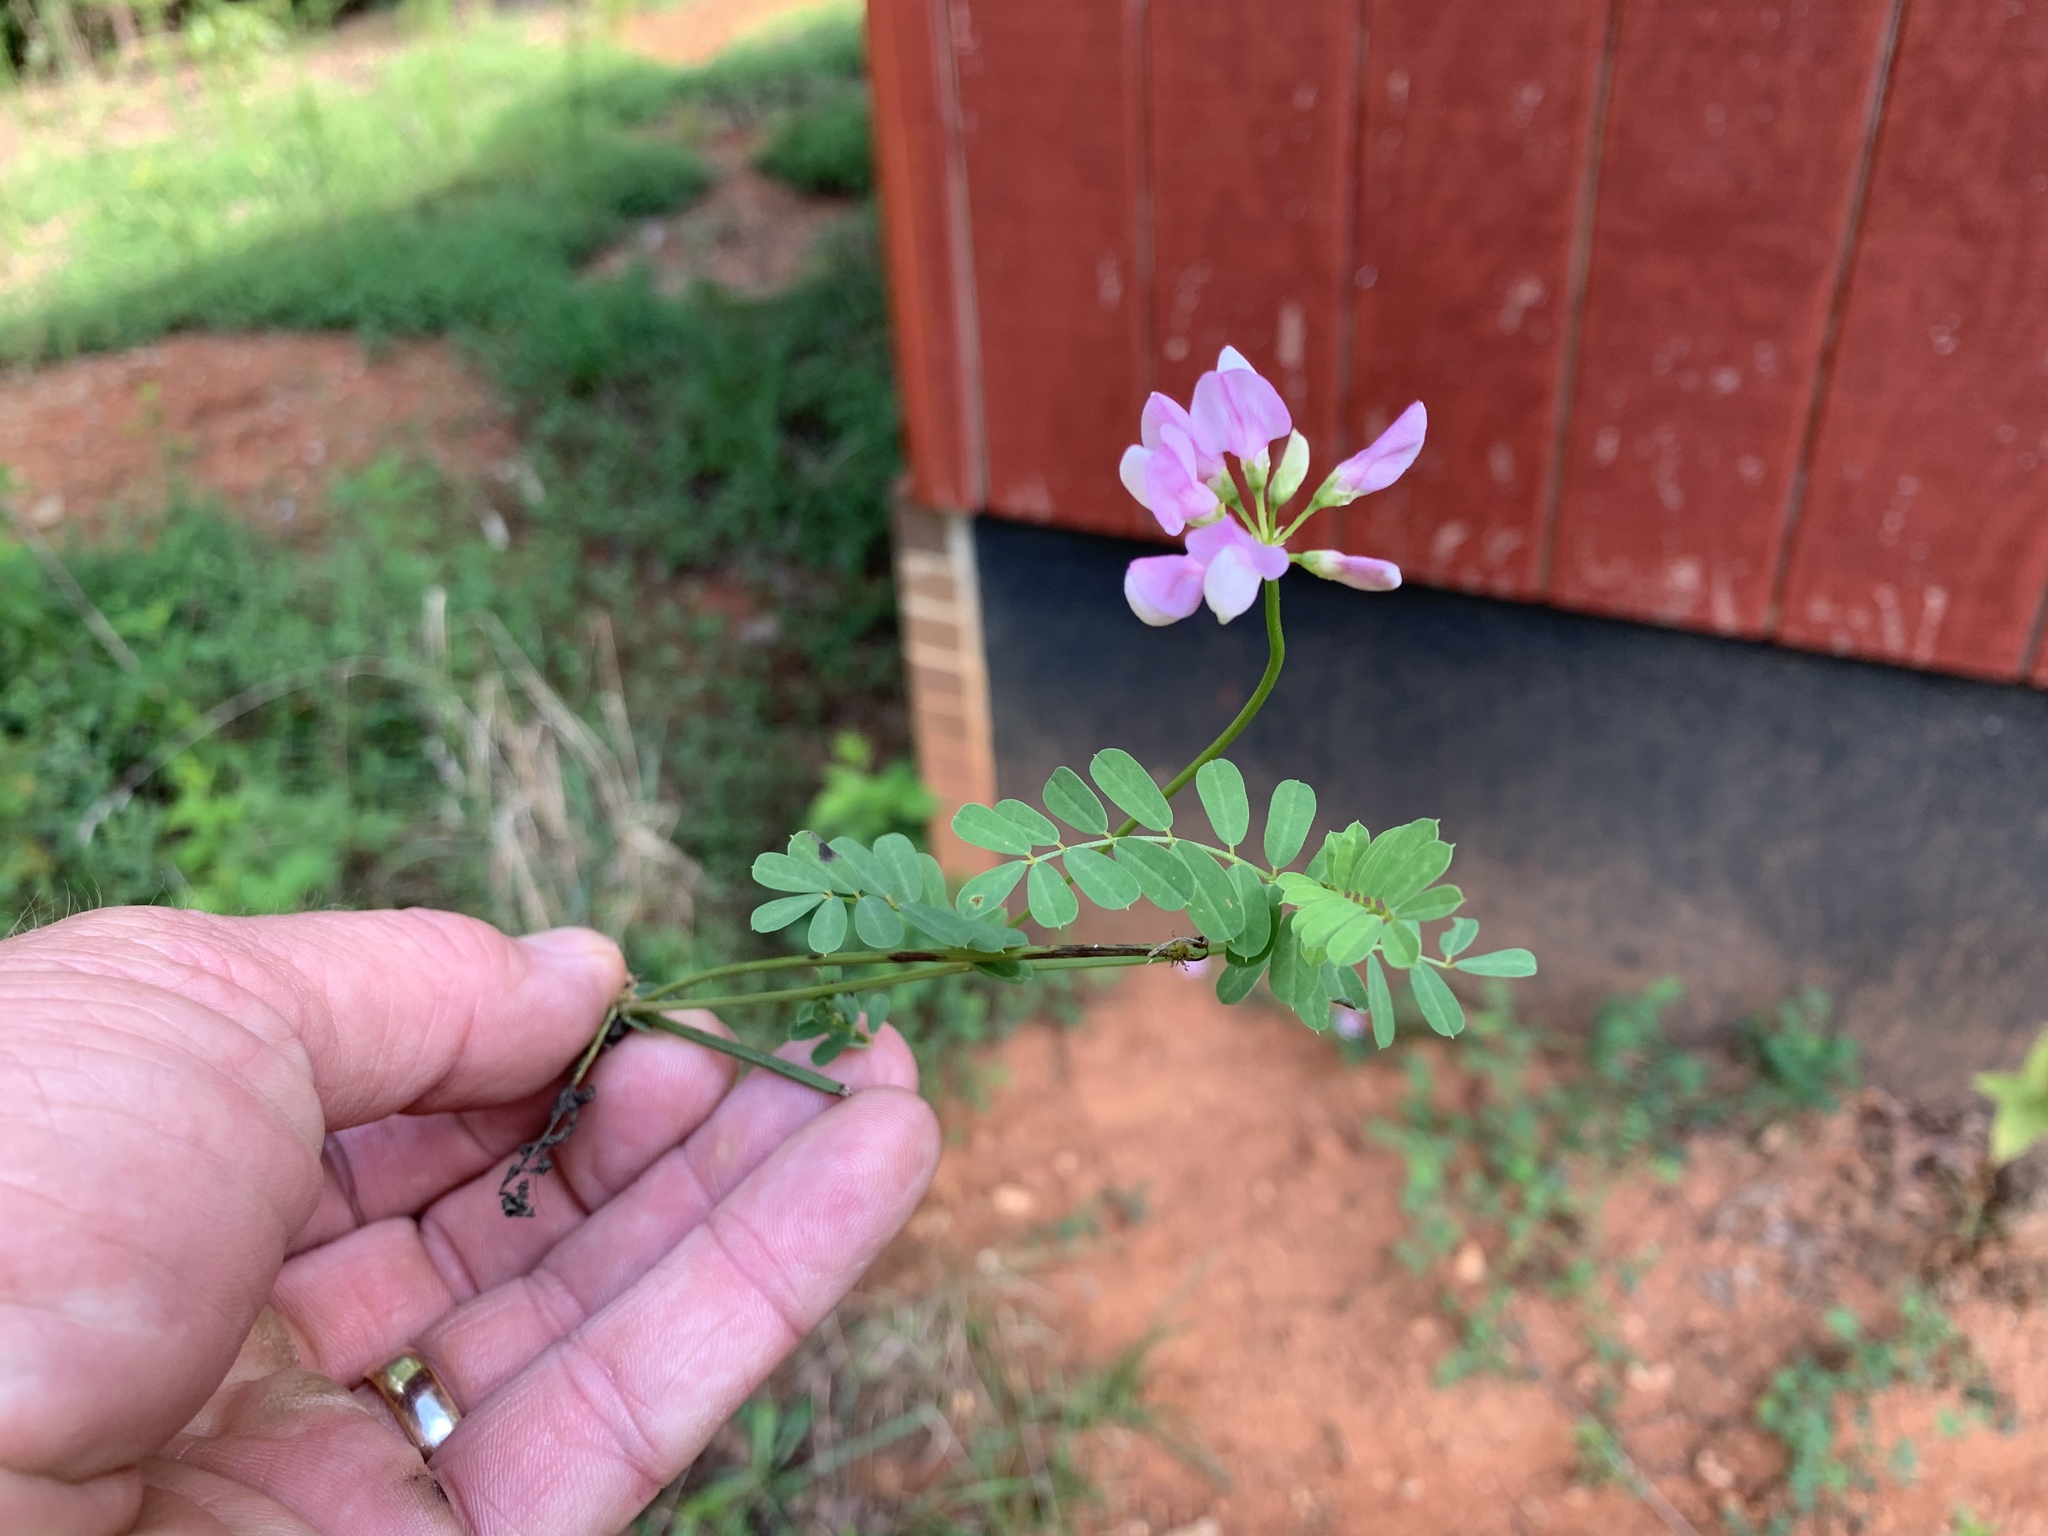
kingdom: Plantae
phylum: Tracheophyta
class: Magnoliopsida
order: Fabales
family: Fabaceae
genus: Coronilla
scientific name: Coronilla varia
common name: Crownvetch
